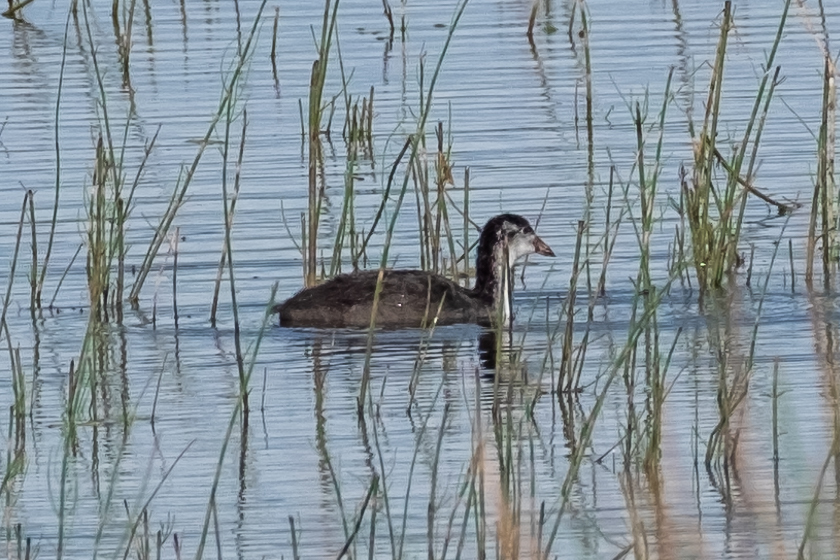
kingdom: Animalia
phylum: Chordata
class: Aves
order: Gruiformes
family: Rallidae
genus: Fulica
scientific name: Fulica atra
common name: Eurasian coot
